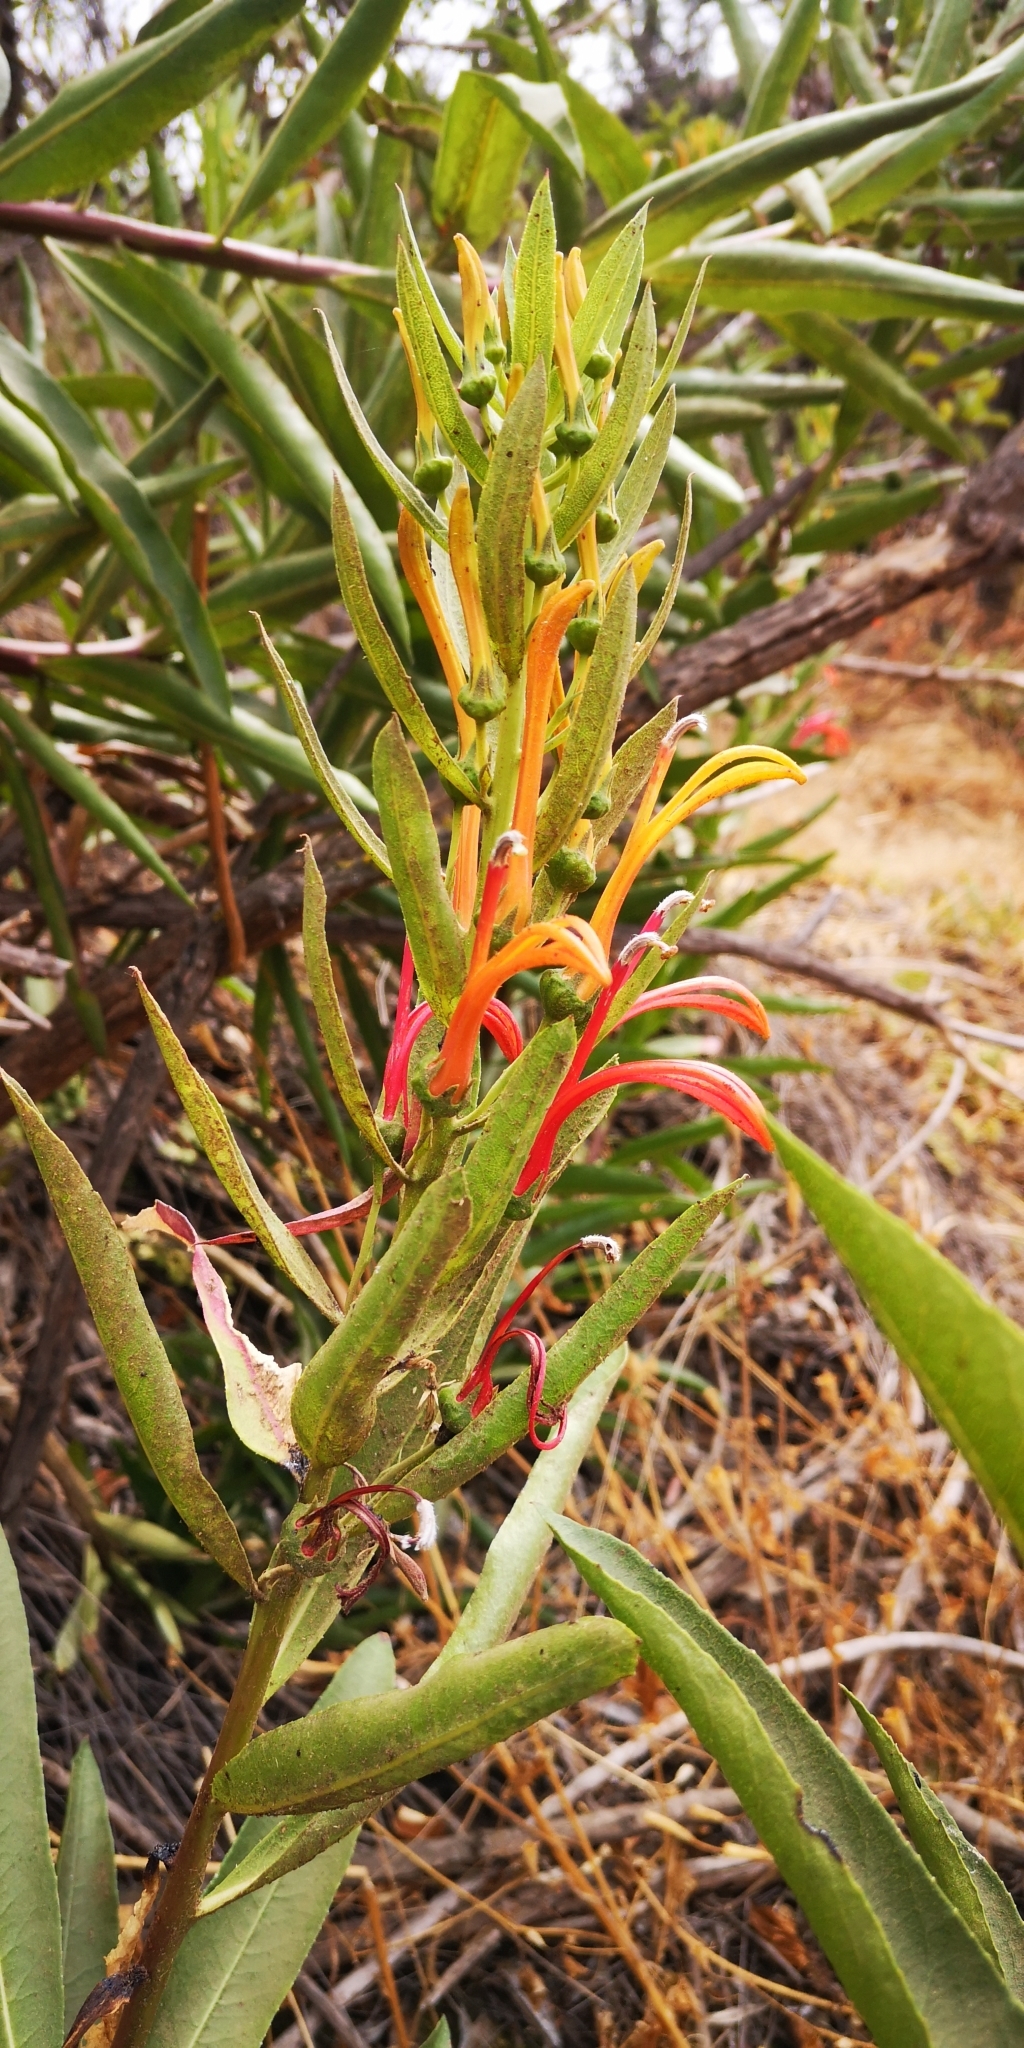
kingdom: Plantae
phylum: Tracheophyta
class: Magnoliopsida
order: Asterales
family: Campanulaceae
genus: Lobelia
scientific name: Lobelia excelsa
